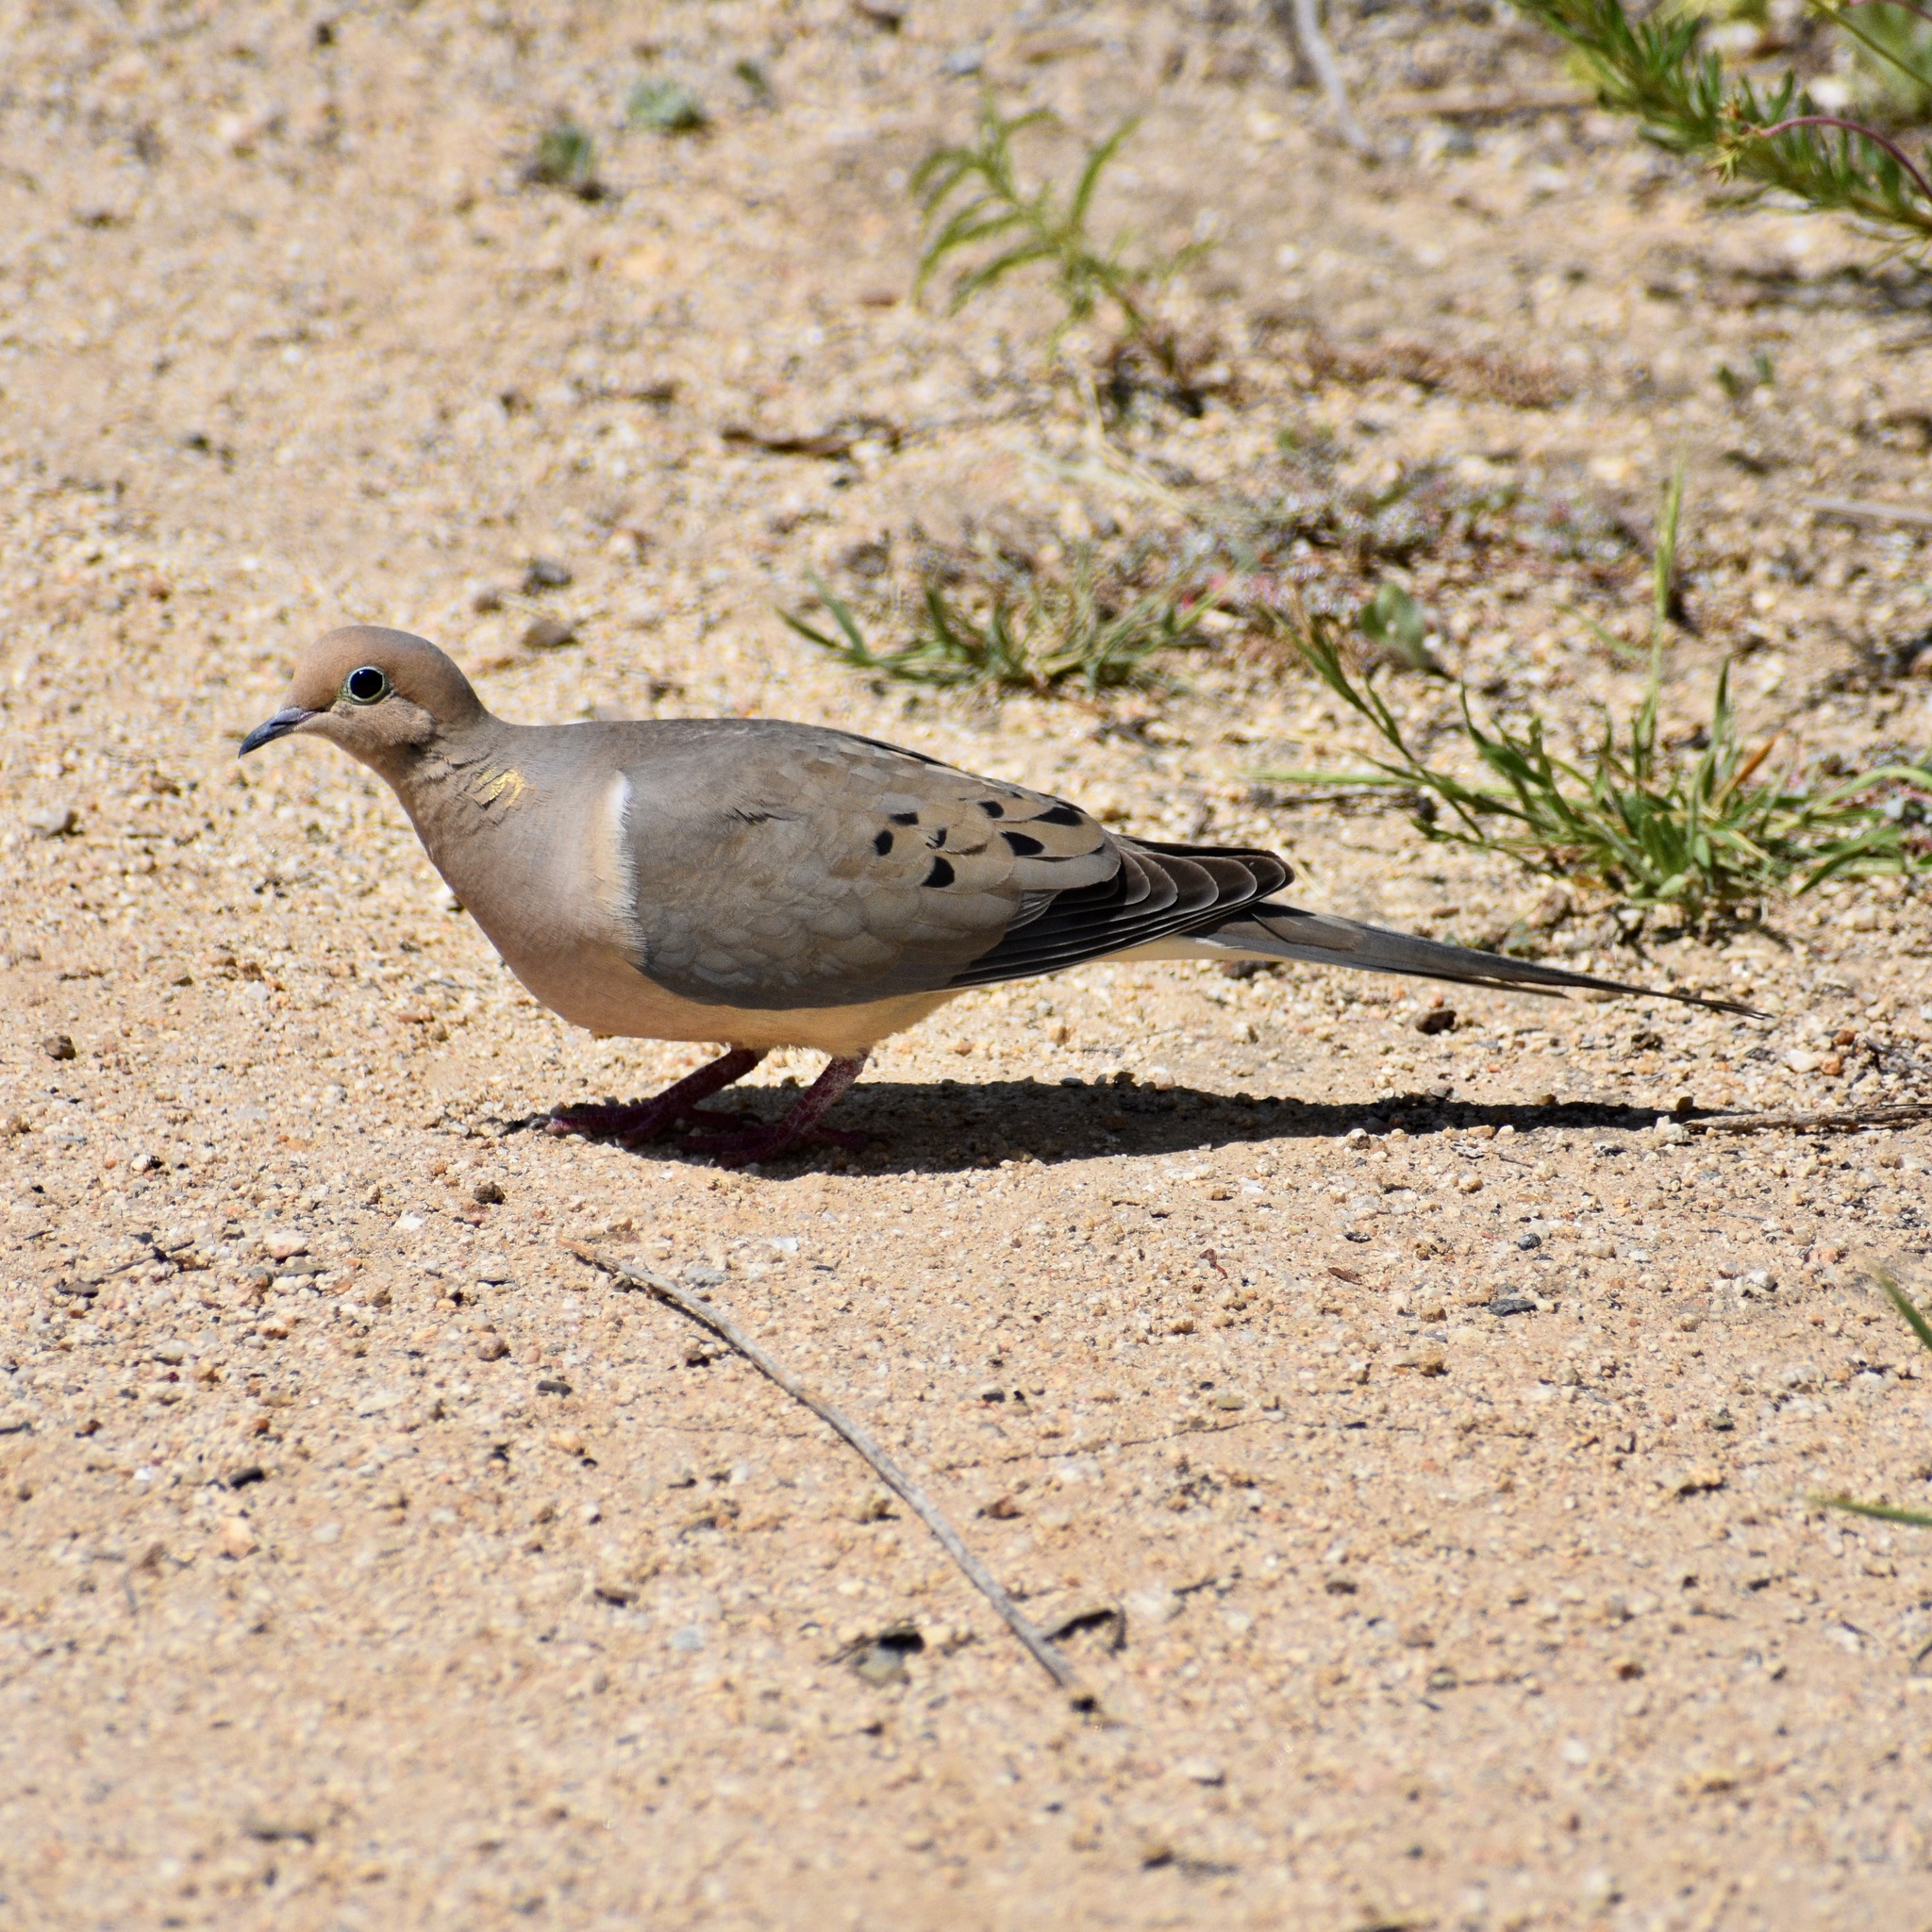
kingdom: Animalia
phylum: Chordata
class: Aves
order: Columbiformes
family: Columbidae
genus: Zenaida
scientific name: Zenaida macroura
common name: Mourning dove
